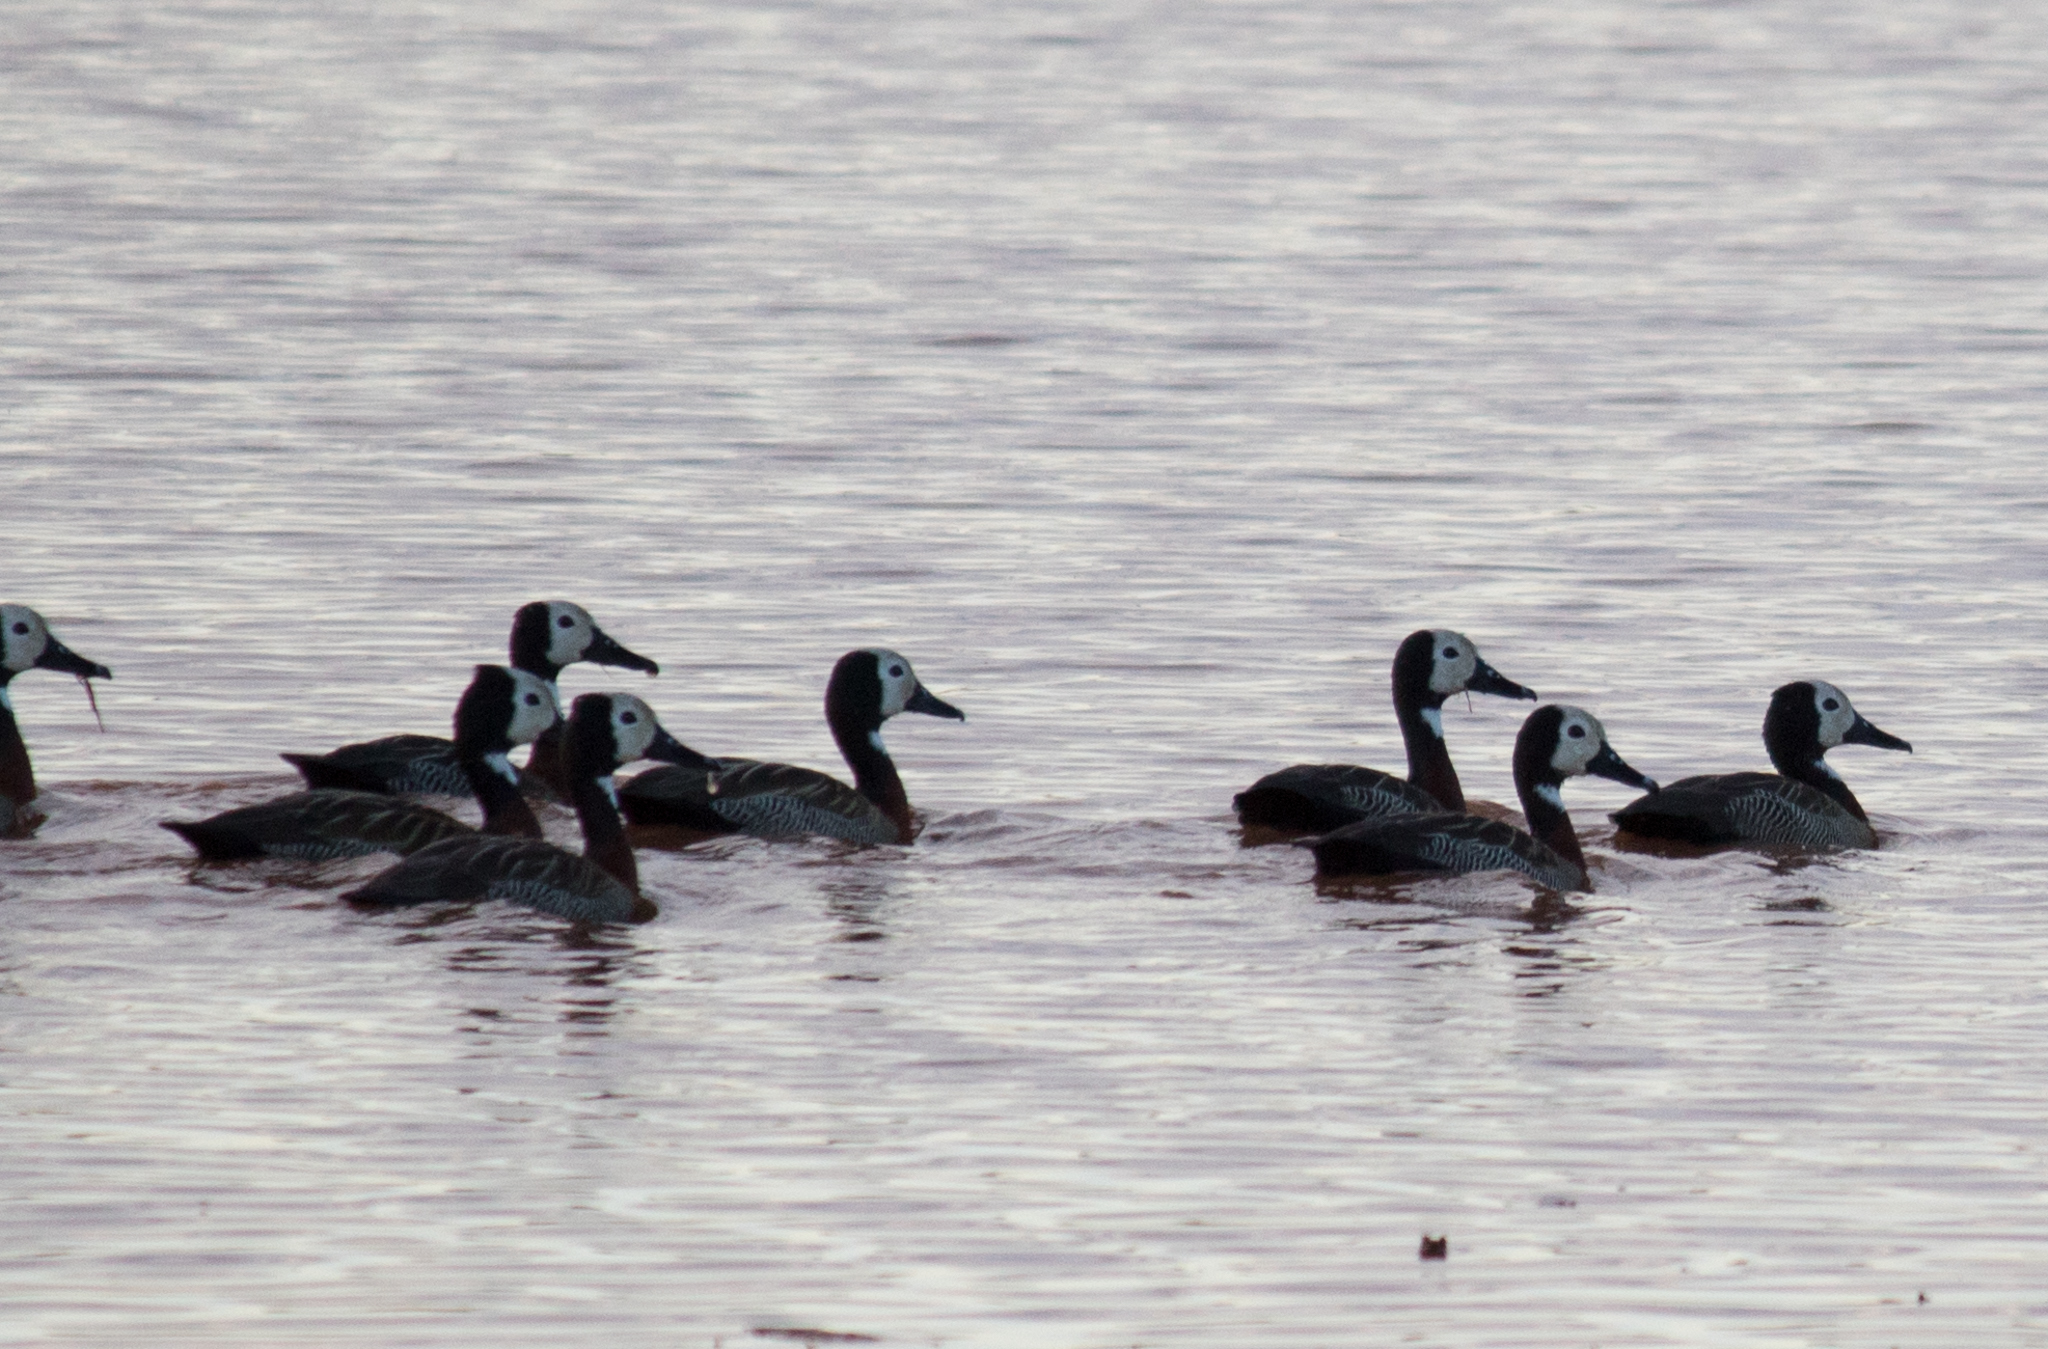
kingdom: Animalia
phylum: Chordata
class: Aves
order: Anseriformes
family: Anatidae
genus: Dendrocygna
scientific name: Dendrocygna viduata
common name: White-faced whistling duck
